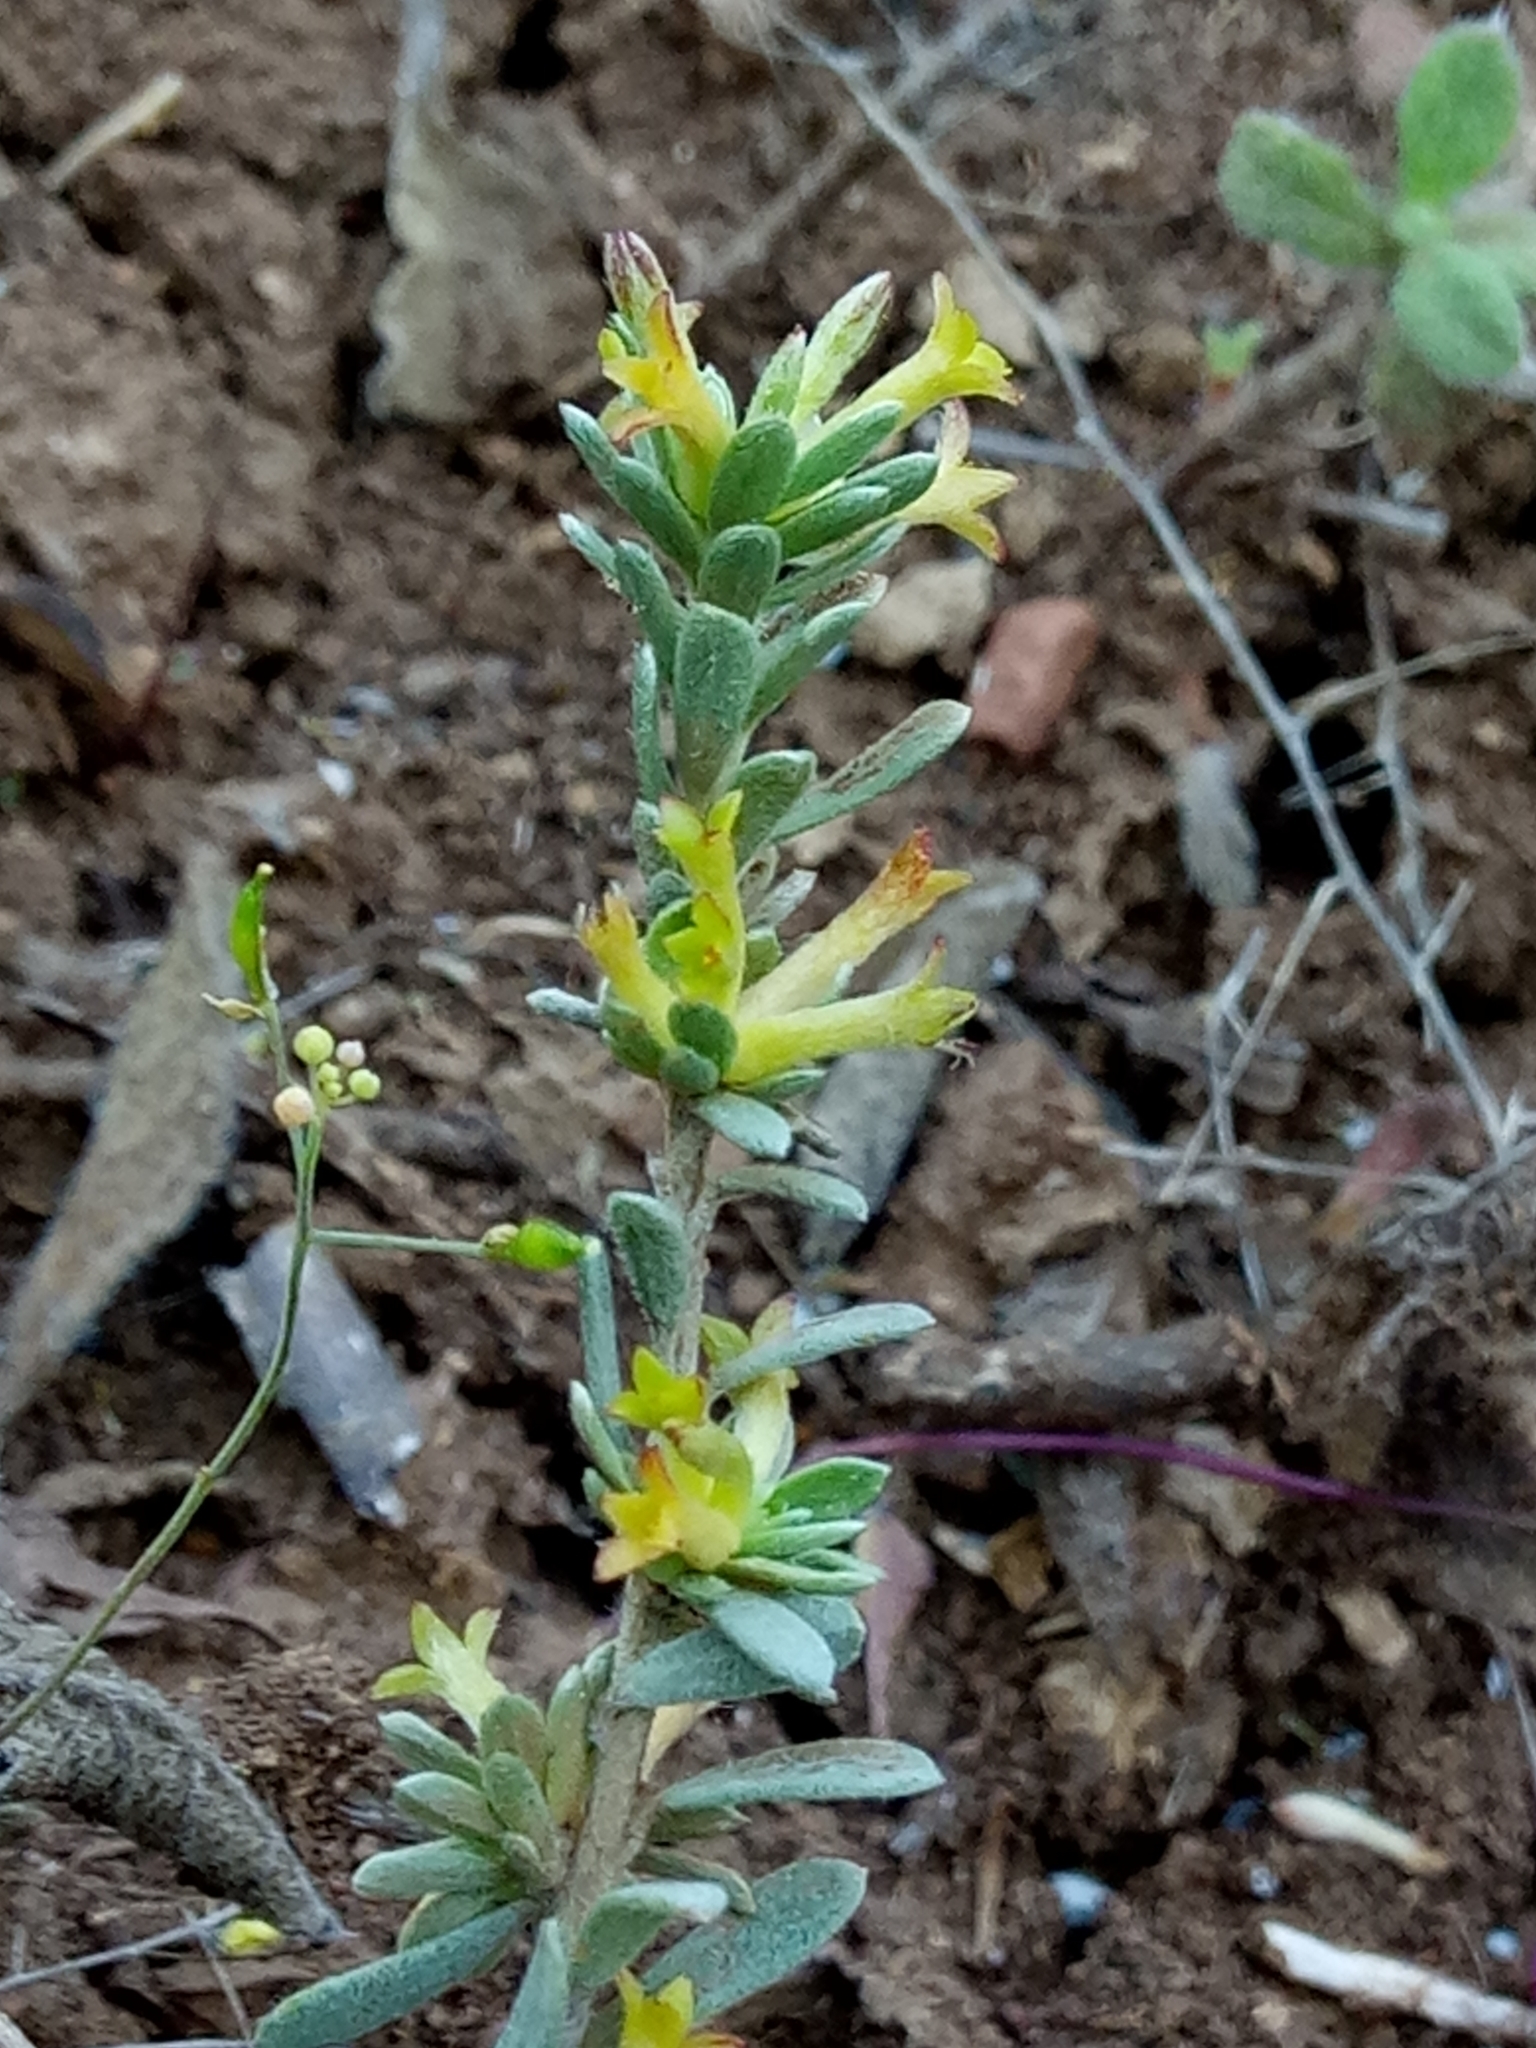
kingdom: Plantae
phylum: Tracheophyta
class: Magnoliopsida
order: Malvales
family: Thymelaeaceae
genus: Thymelaea
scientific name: Thymelaea argentata
